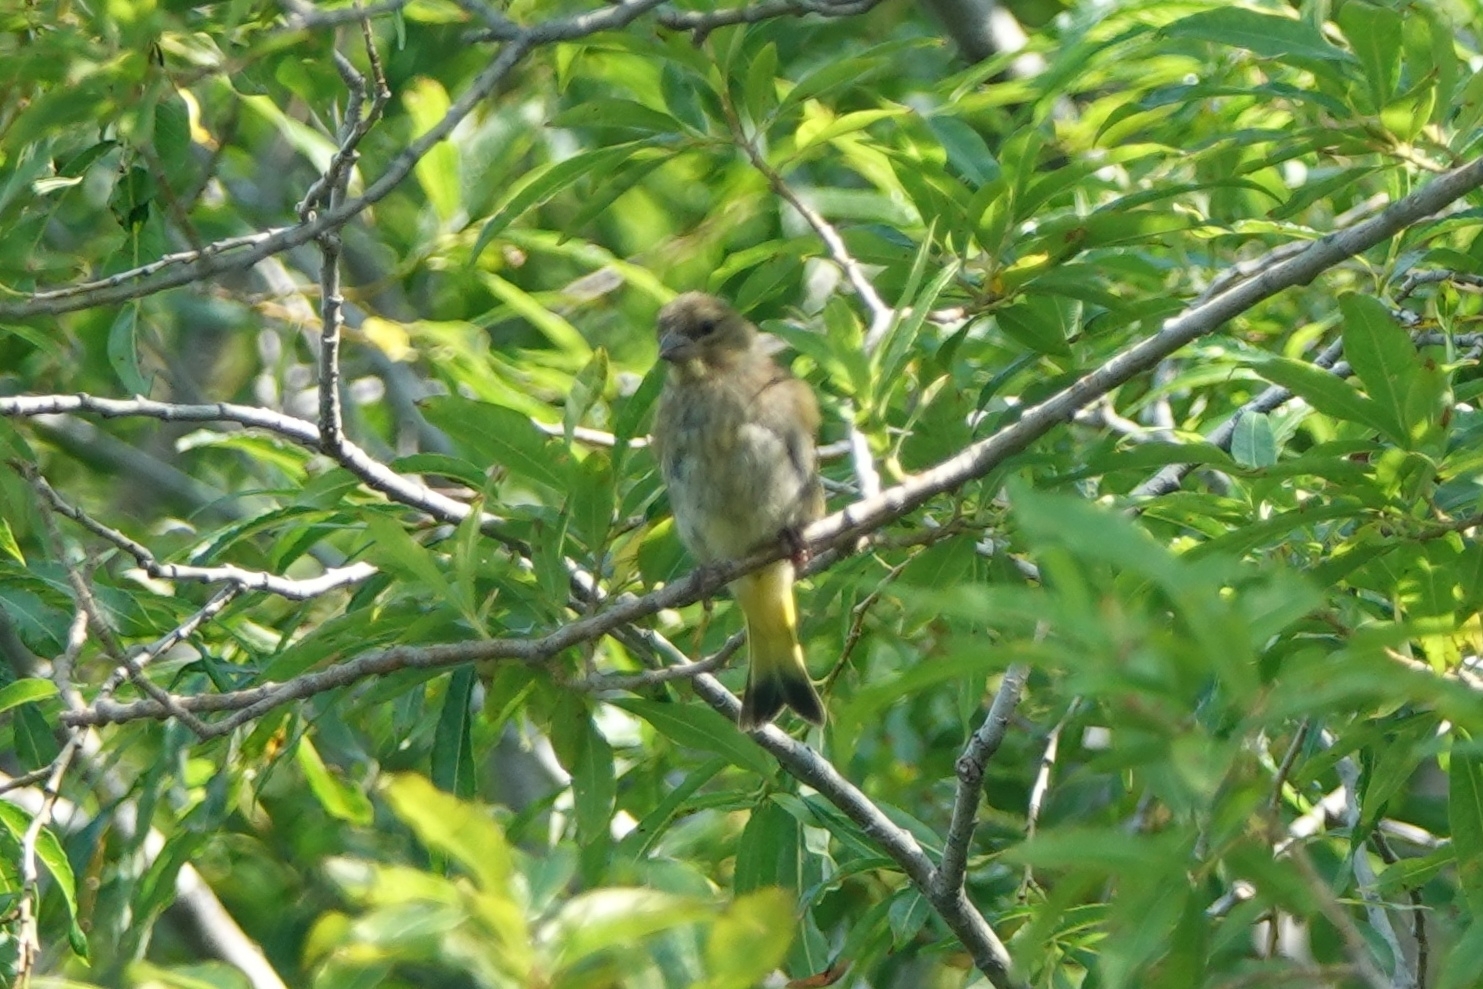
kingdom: Plantae
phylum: Tracheophyta
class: Liliopsida
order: Poales
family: Poaceae
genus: Chloris
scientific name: Chloris sinica
